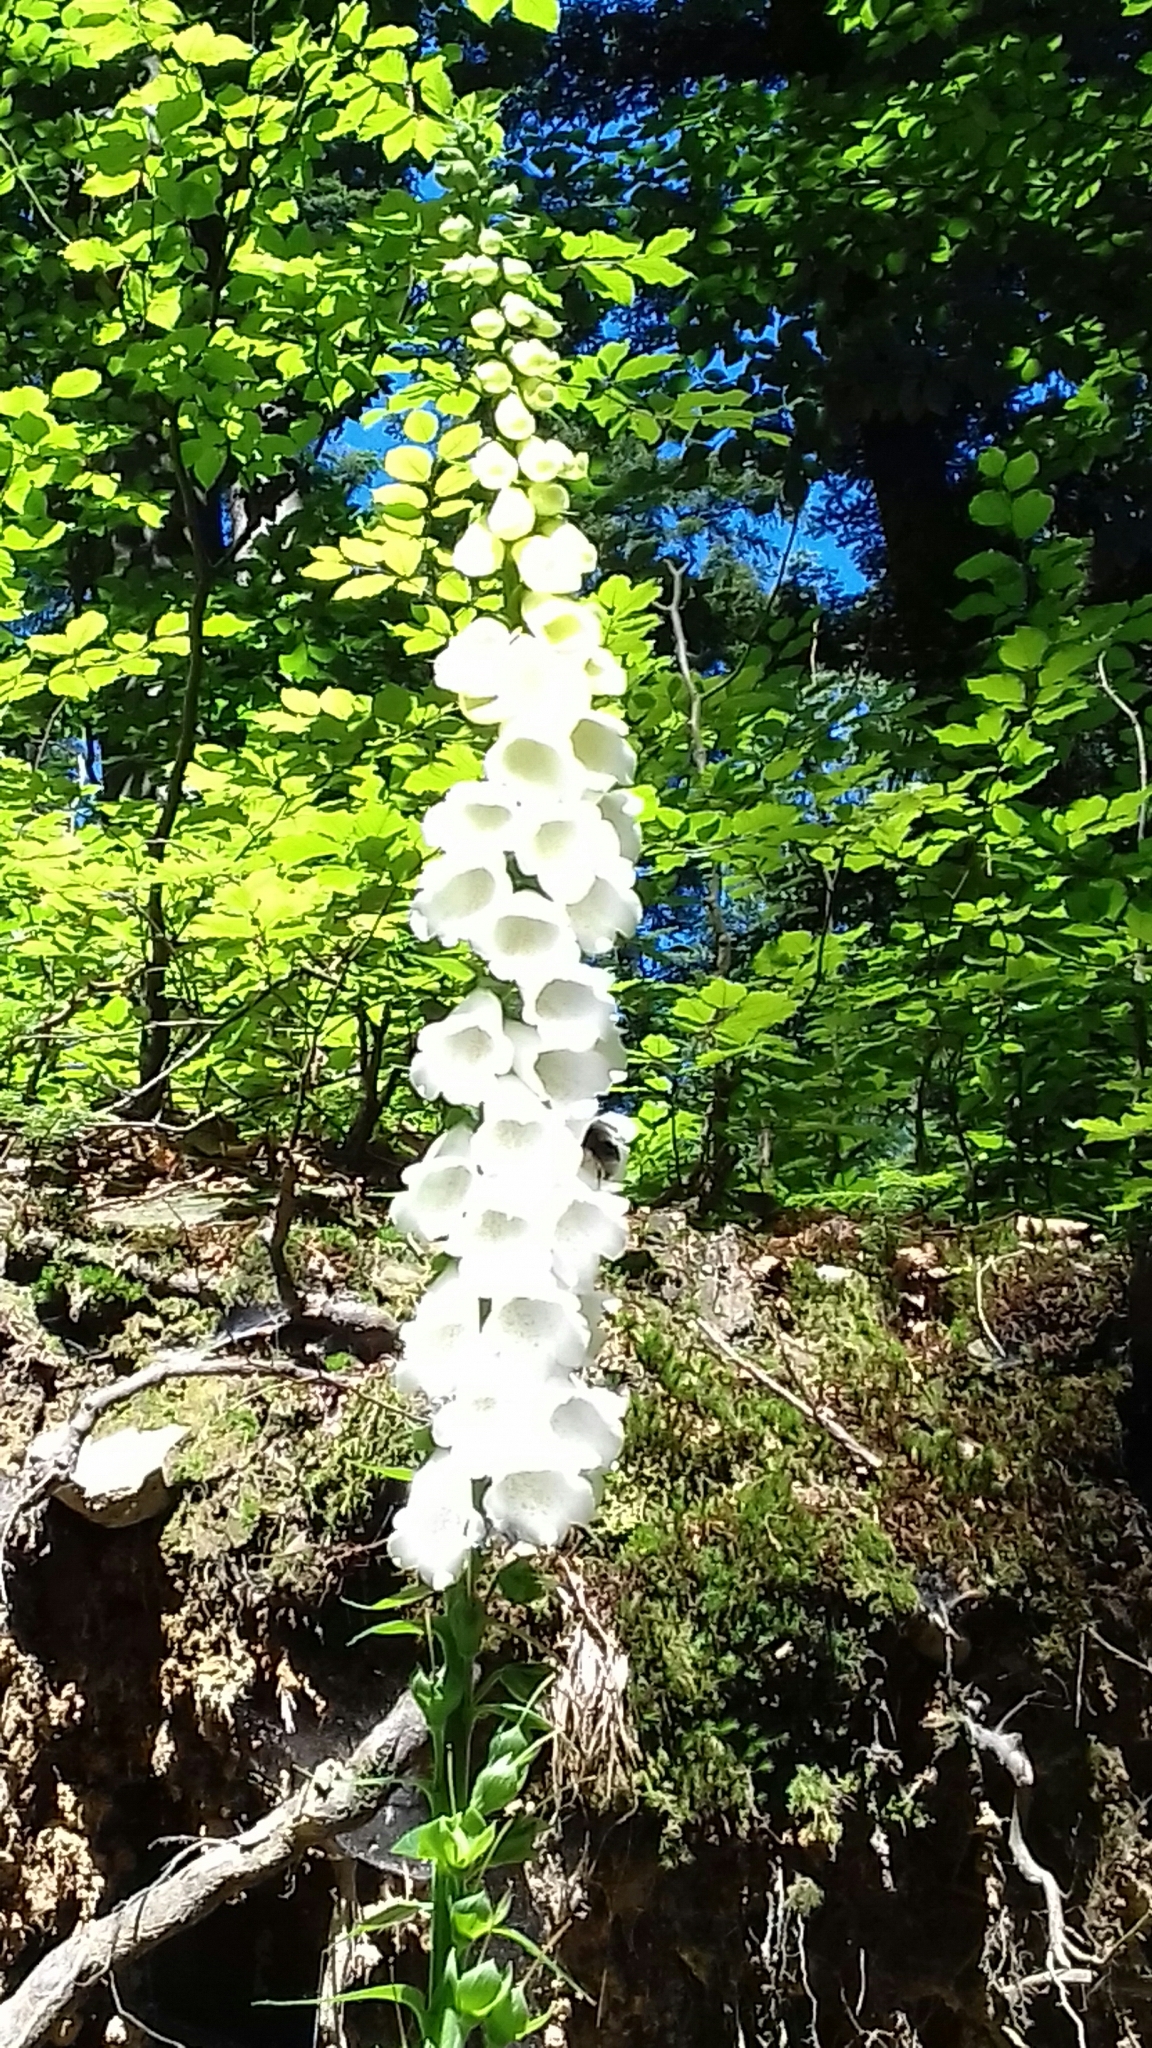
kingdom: Plantae
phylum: Tracheophyta
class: Magnoliopsida
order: Lamiales
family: Plantaginaceae
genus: Digitalis
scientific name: Digitalis purpurea
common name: Foxglove
